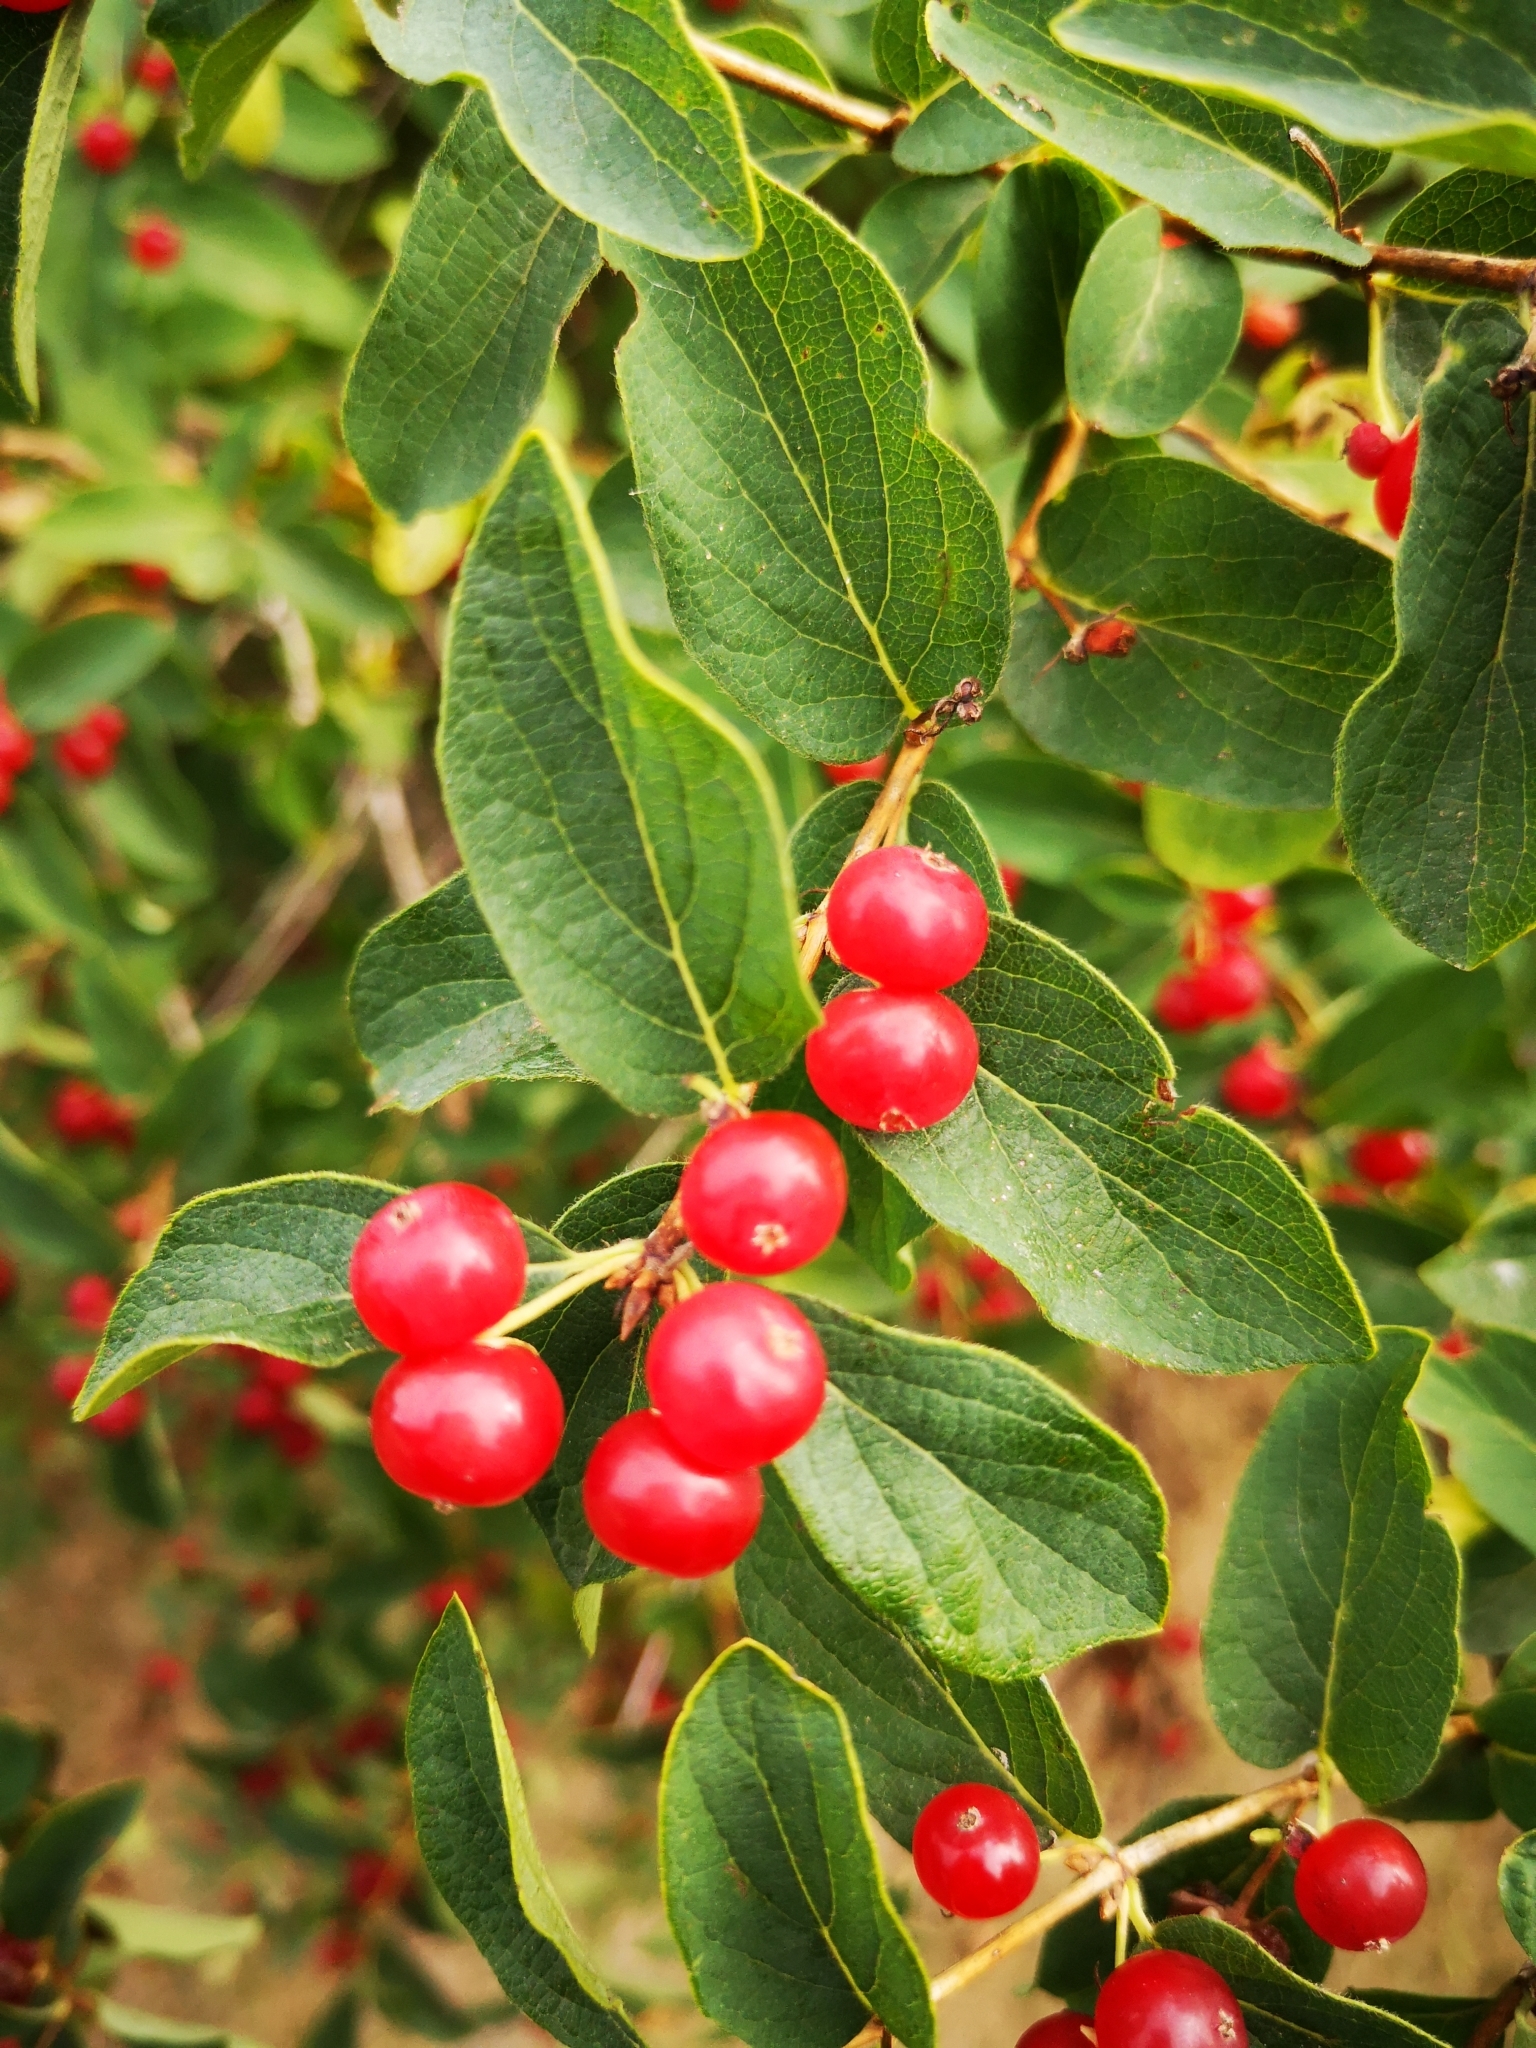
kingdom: Plantae
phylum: Tracheophyta
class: Magnoliopsida
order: Dipsacales
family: Caprifoliaceae
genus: Lonicera
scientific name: Lonicera tatarica
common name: Tatarian honeysuckle
